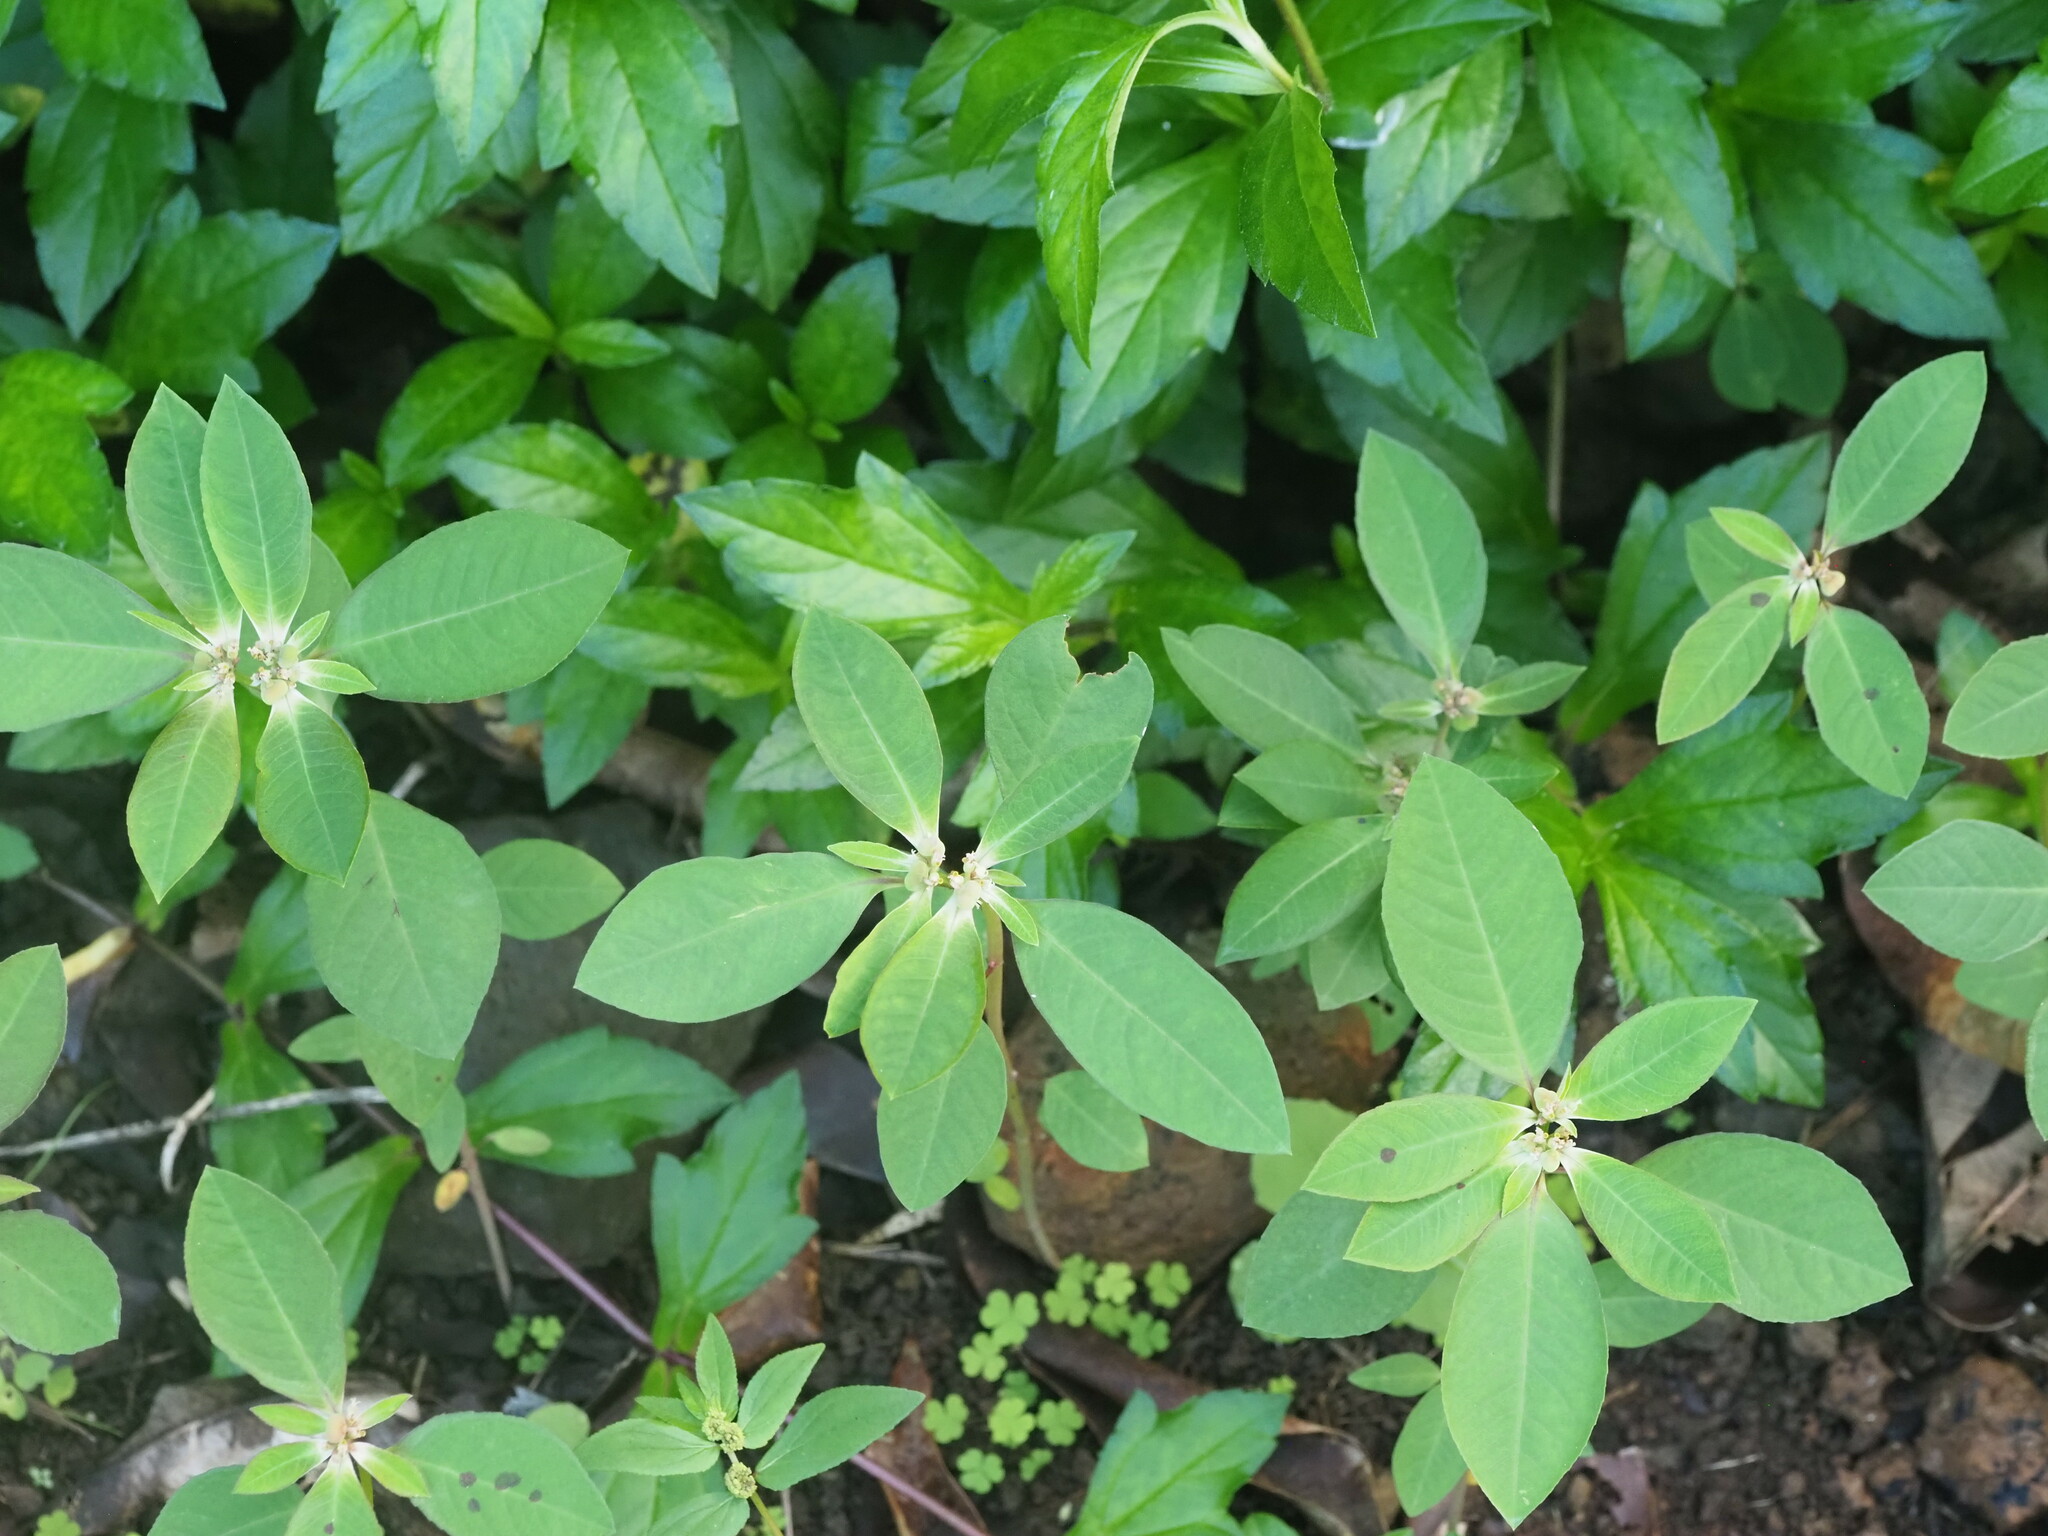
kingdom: Plantae
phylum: Tracheophyta
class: Magnoliopsida
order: Malpighiales
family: Euphorbiaceae
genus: Euphorbia
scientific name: Euphorbia heterophylla
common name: Mexican fireplant
